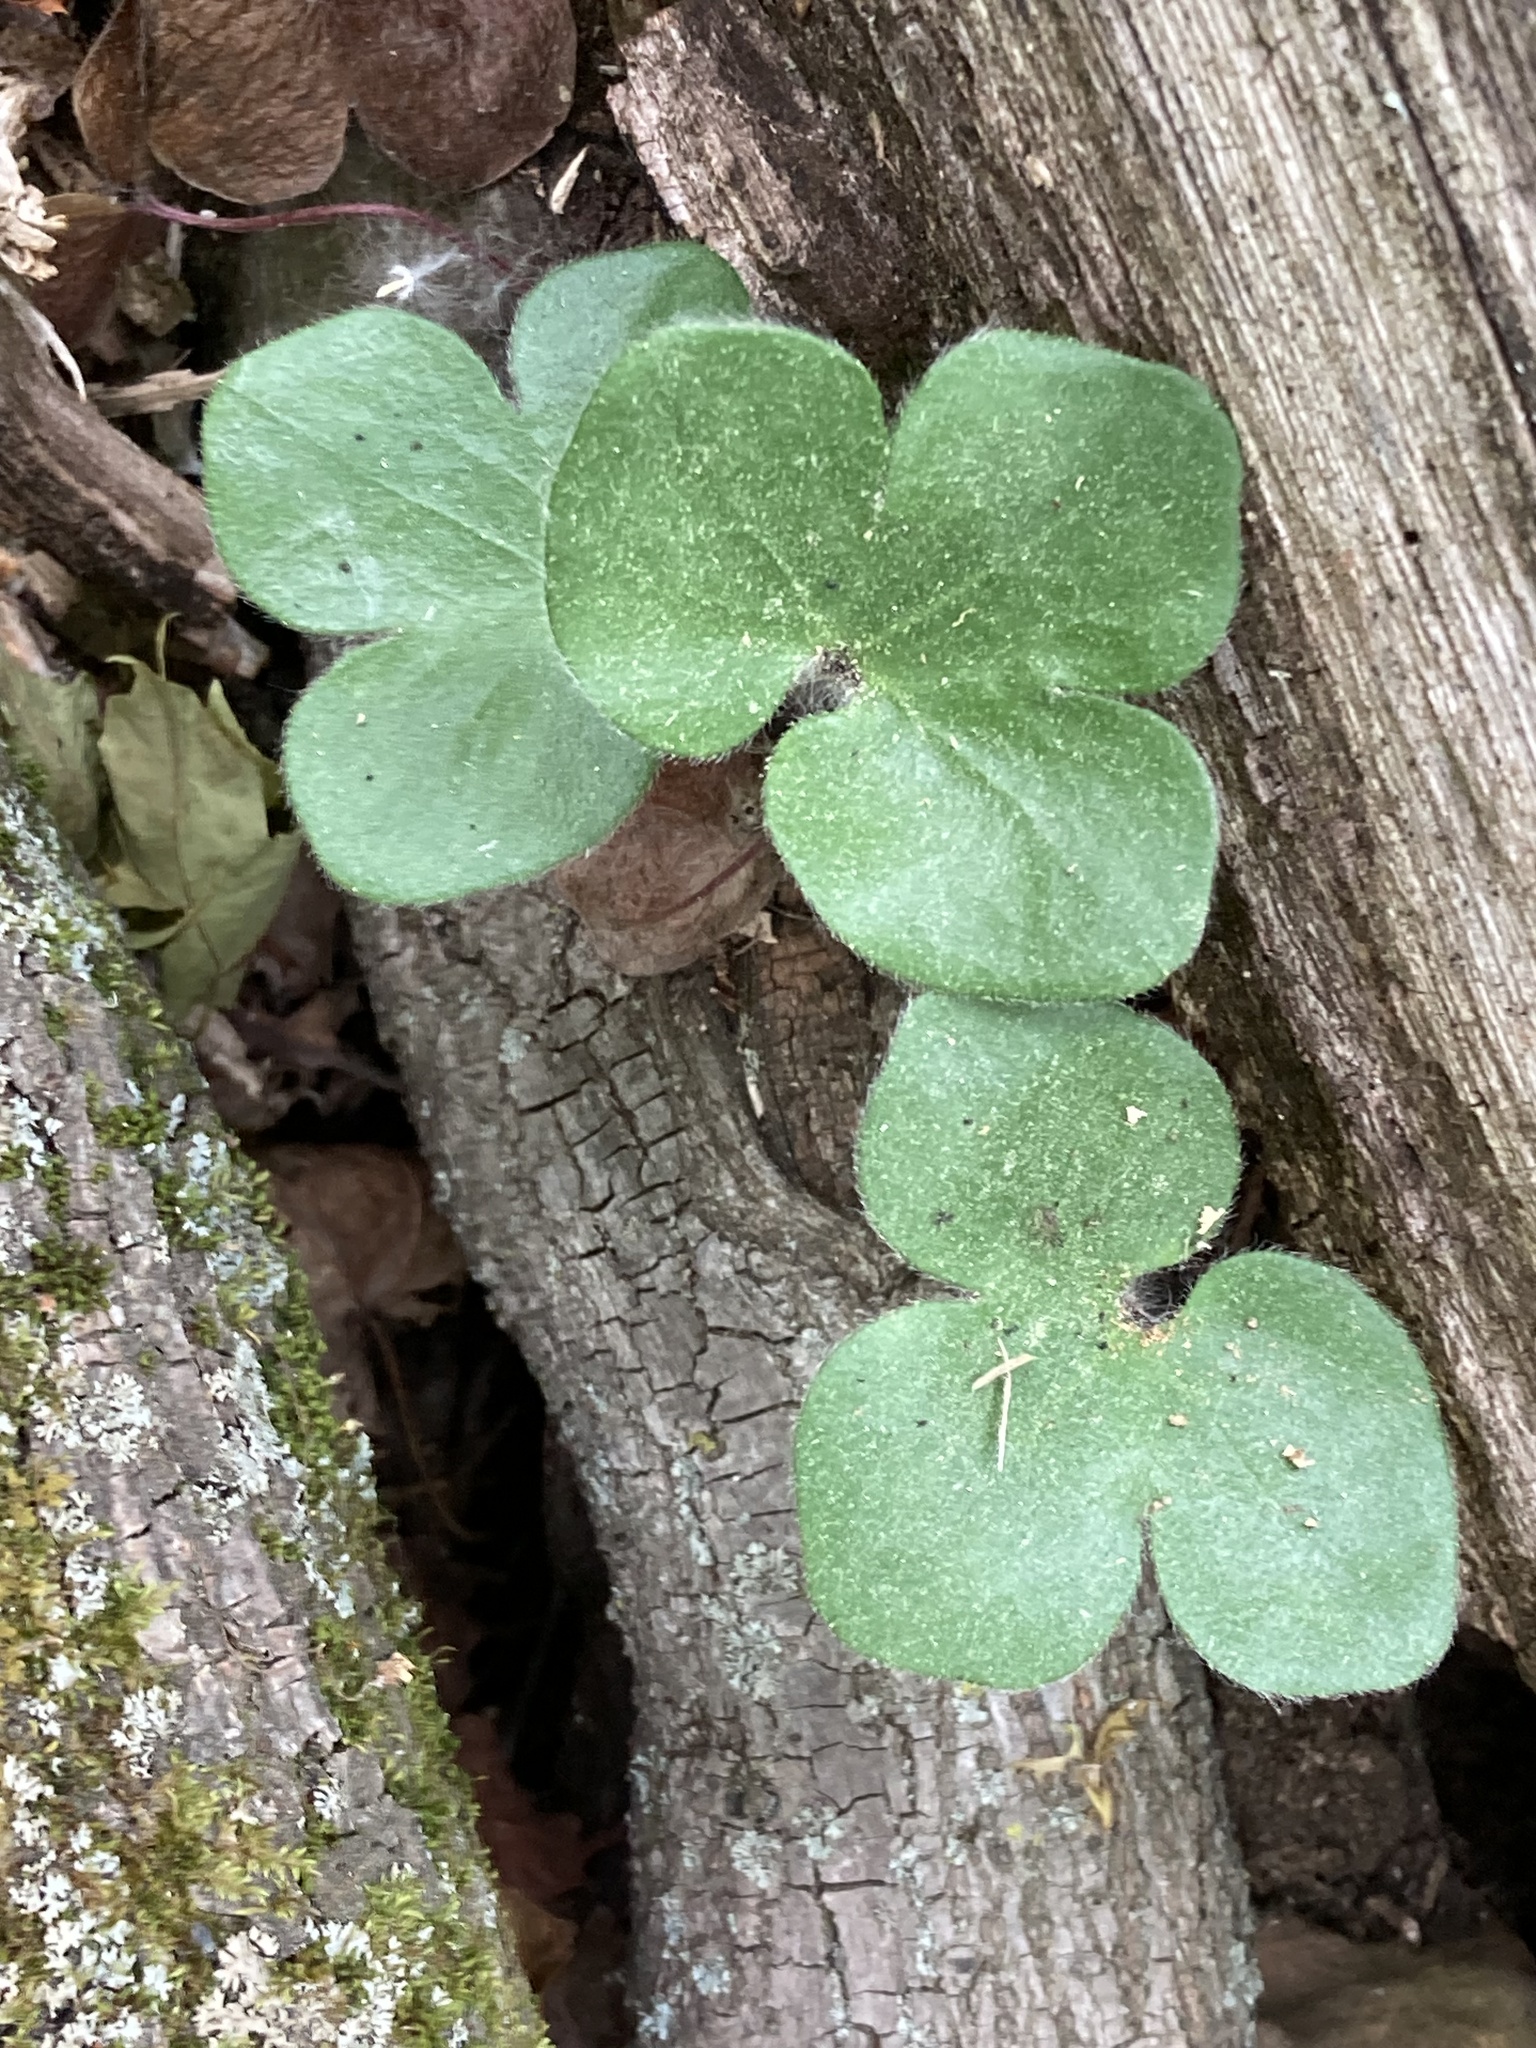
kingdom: Plantae
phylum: Tracheophyta
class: Magnoliopsida
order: Ranunculales
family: Ranunculaceae
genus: Hepatica
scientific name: Hepatica americana
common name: American hepatica
